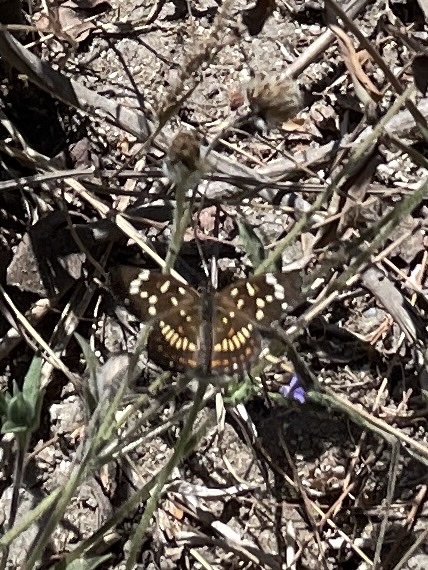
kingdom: Animalia
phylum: Arthropoda
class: Insecta
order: Lepidoptera
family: Nymphalidae
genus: Thessalia
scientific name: Thessalia theona
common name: Nymphalid moth
